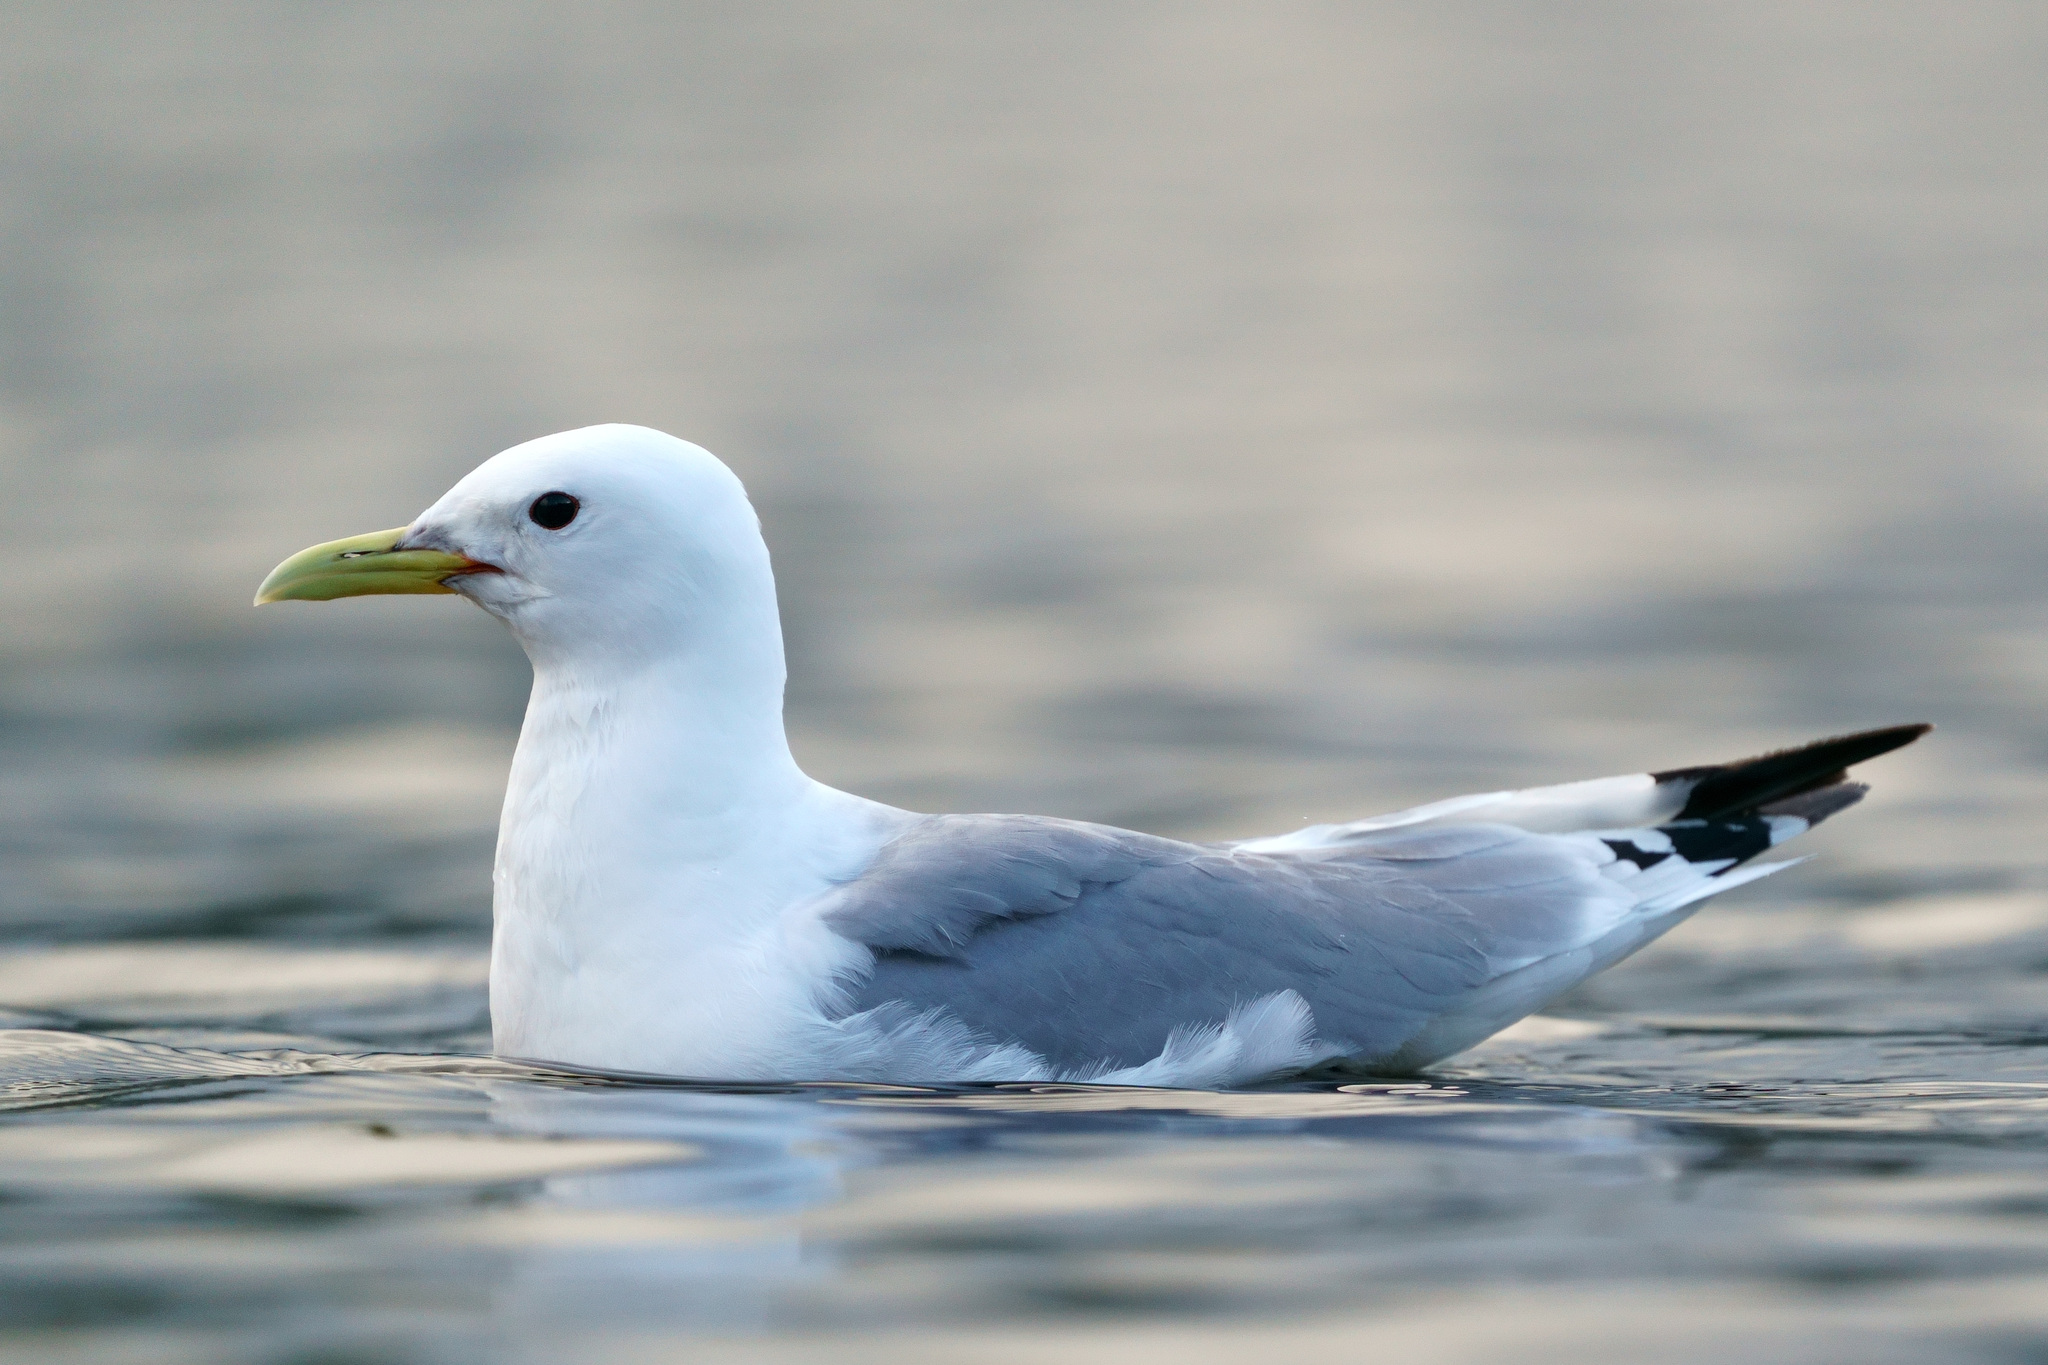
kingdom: Animalia
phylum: Chordata
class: Aves
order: Charadriiformes
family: Laridae
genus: Rissa
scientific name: Rissa tridactyla
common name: Black-legged kittiwake
